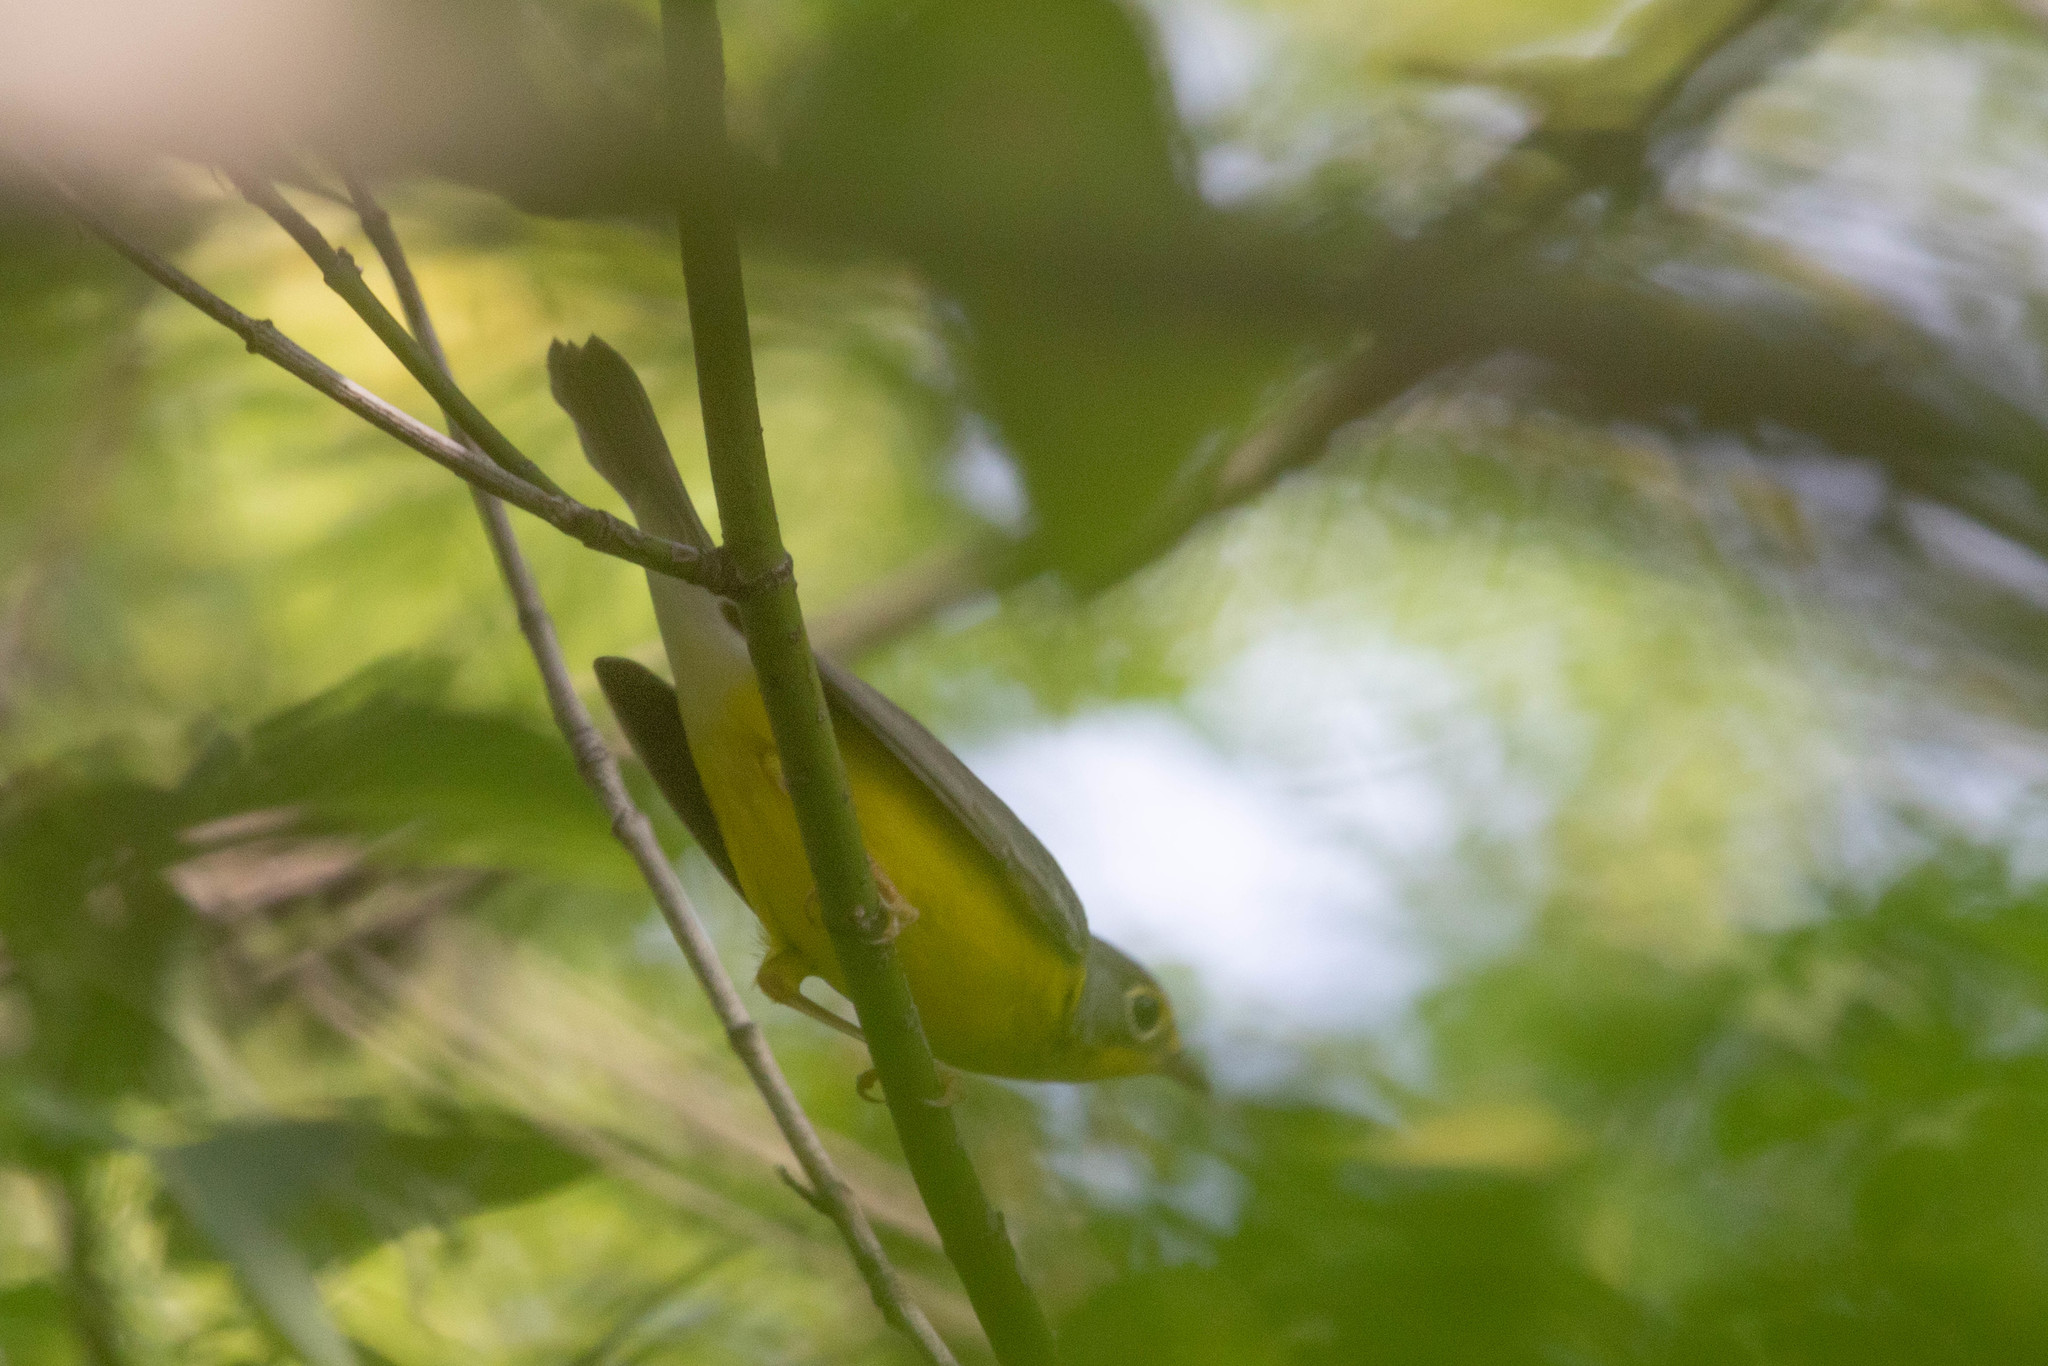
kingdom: Animalia
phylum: Chordata
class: Aves
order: Passeriformes
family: Parulidae
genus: Cardellina
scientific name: Cardellina canadensis
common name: Canada warbler
